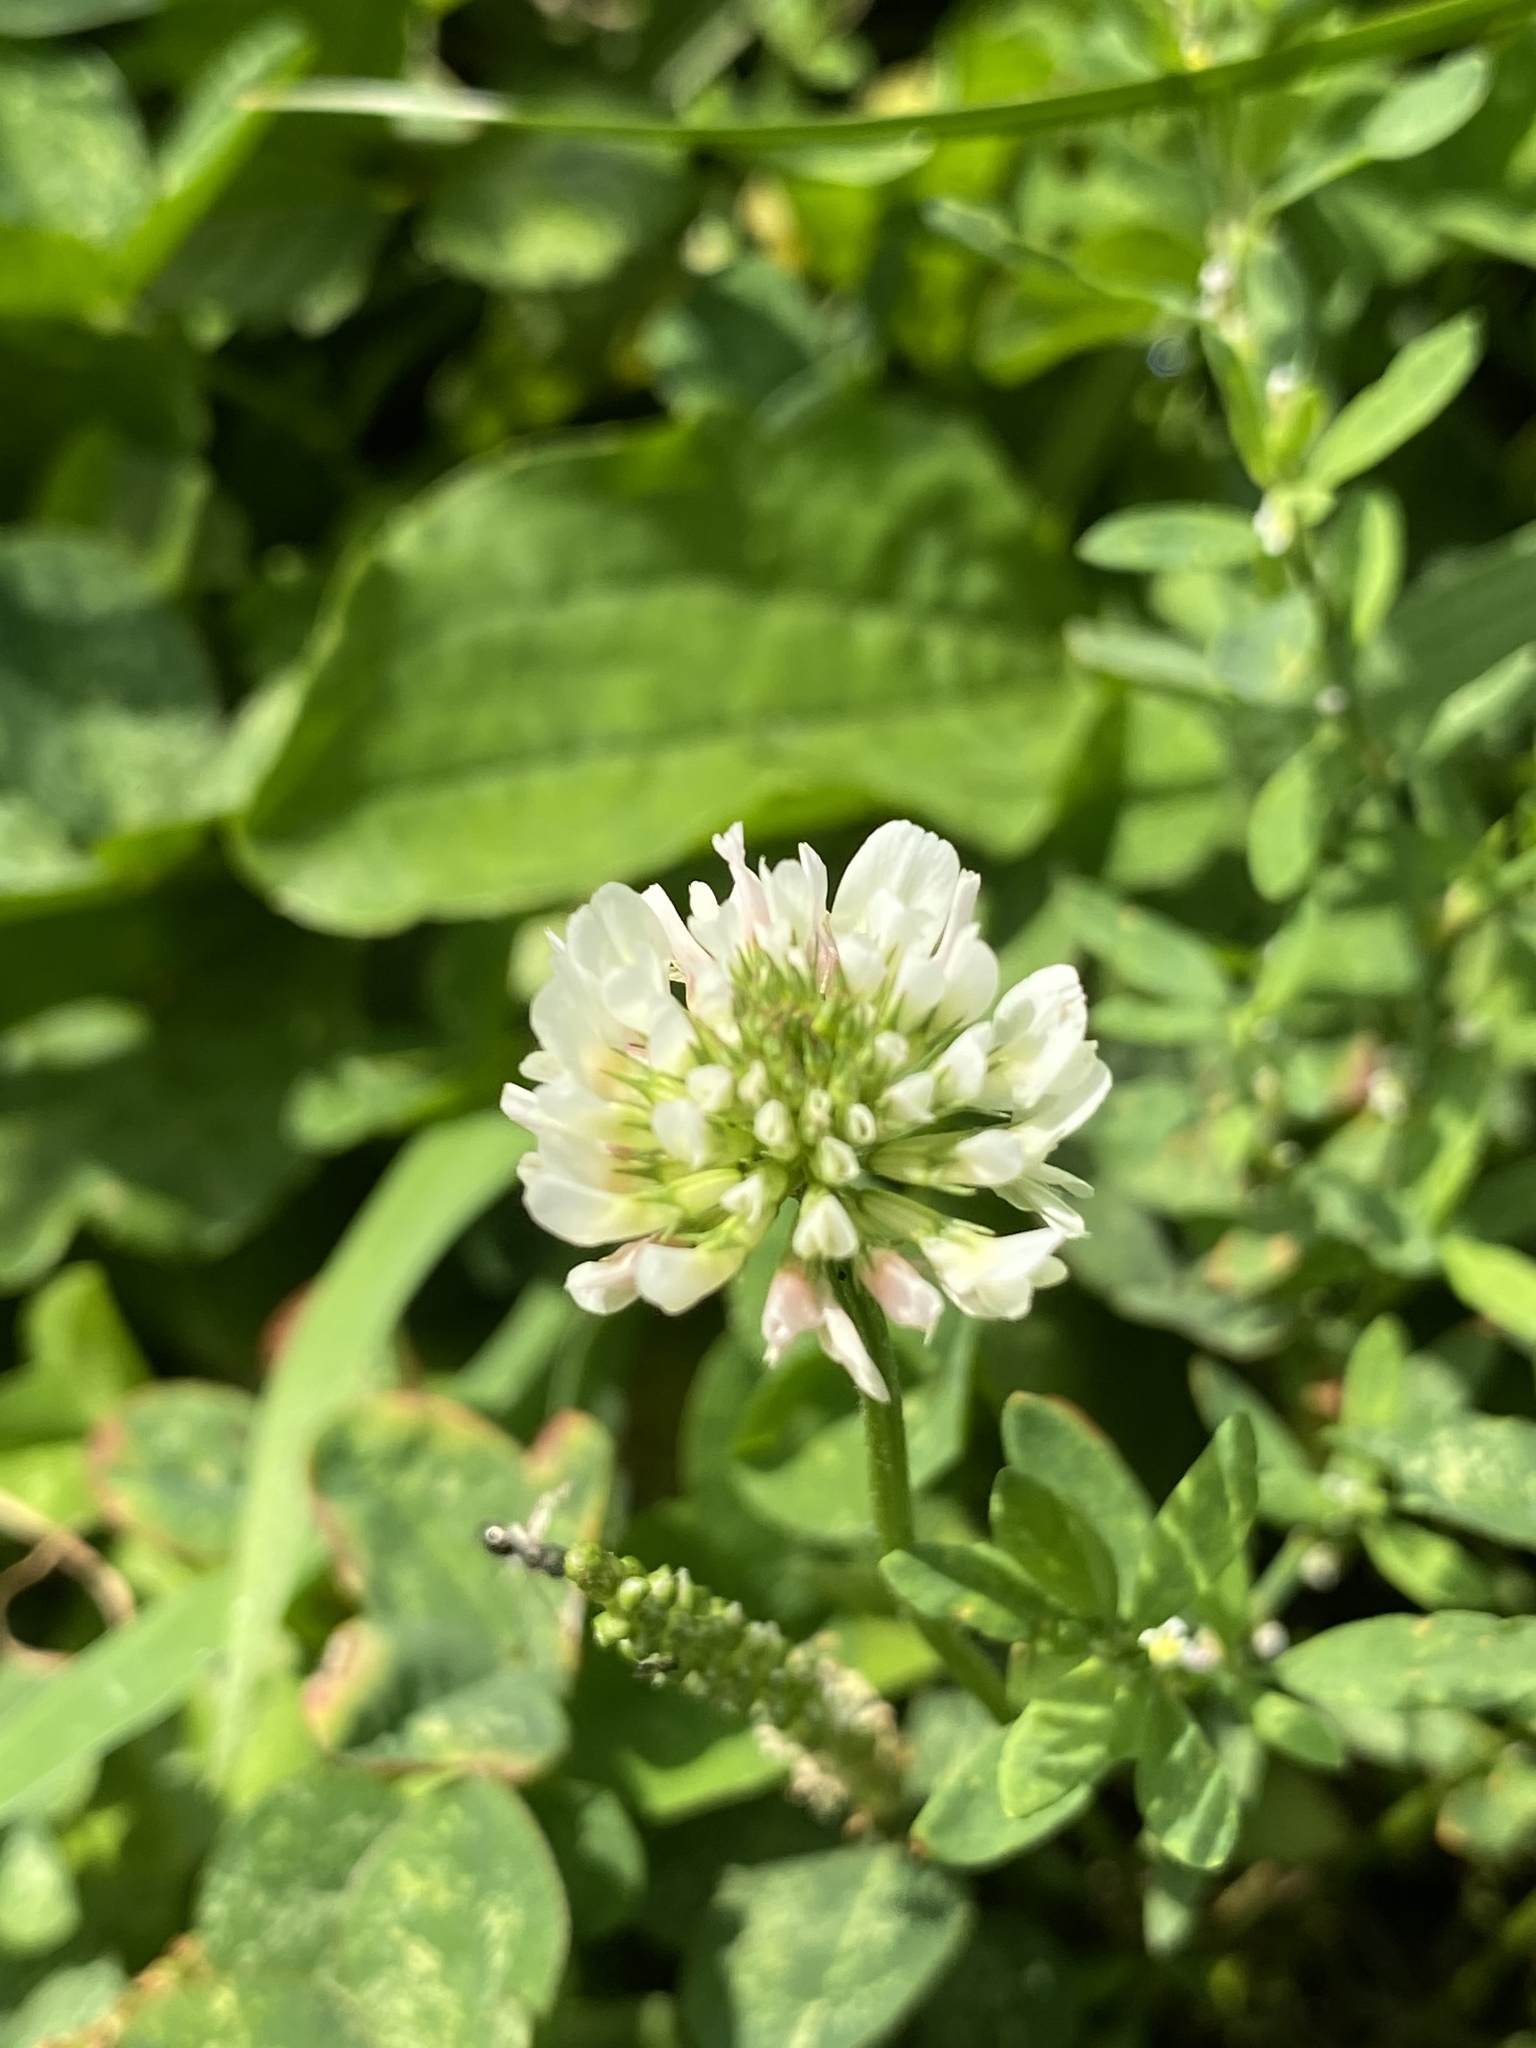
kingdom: Plantae
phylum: Tracheophyta
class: Magnoliopsida
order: Fabales
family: Fabaceae
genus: Trifolium
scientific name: Trifolium repens
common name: White clover
